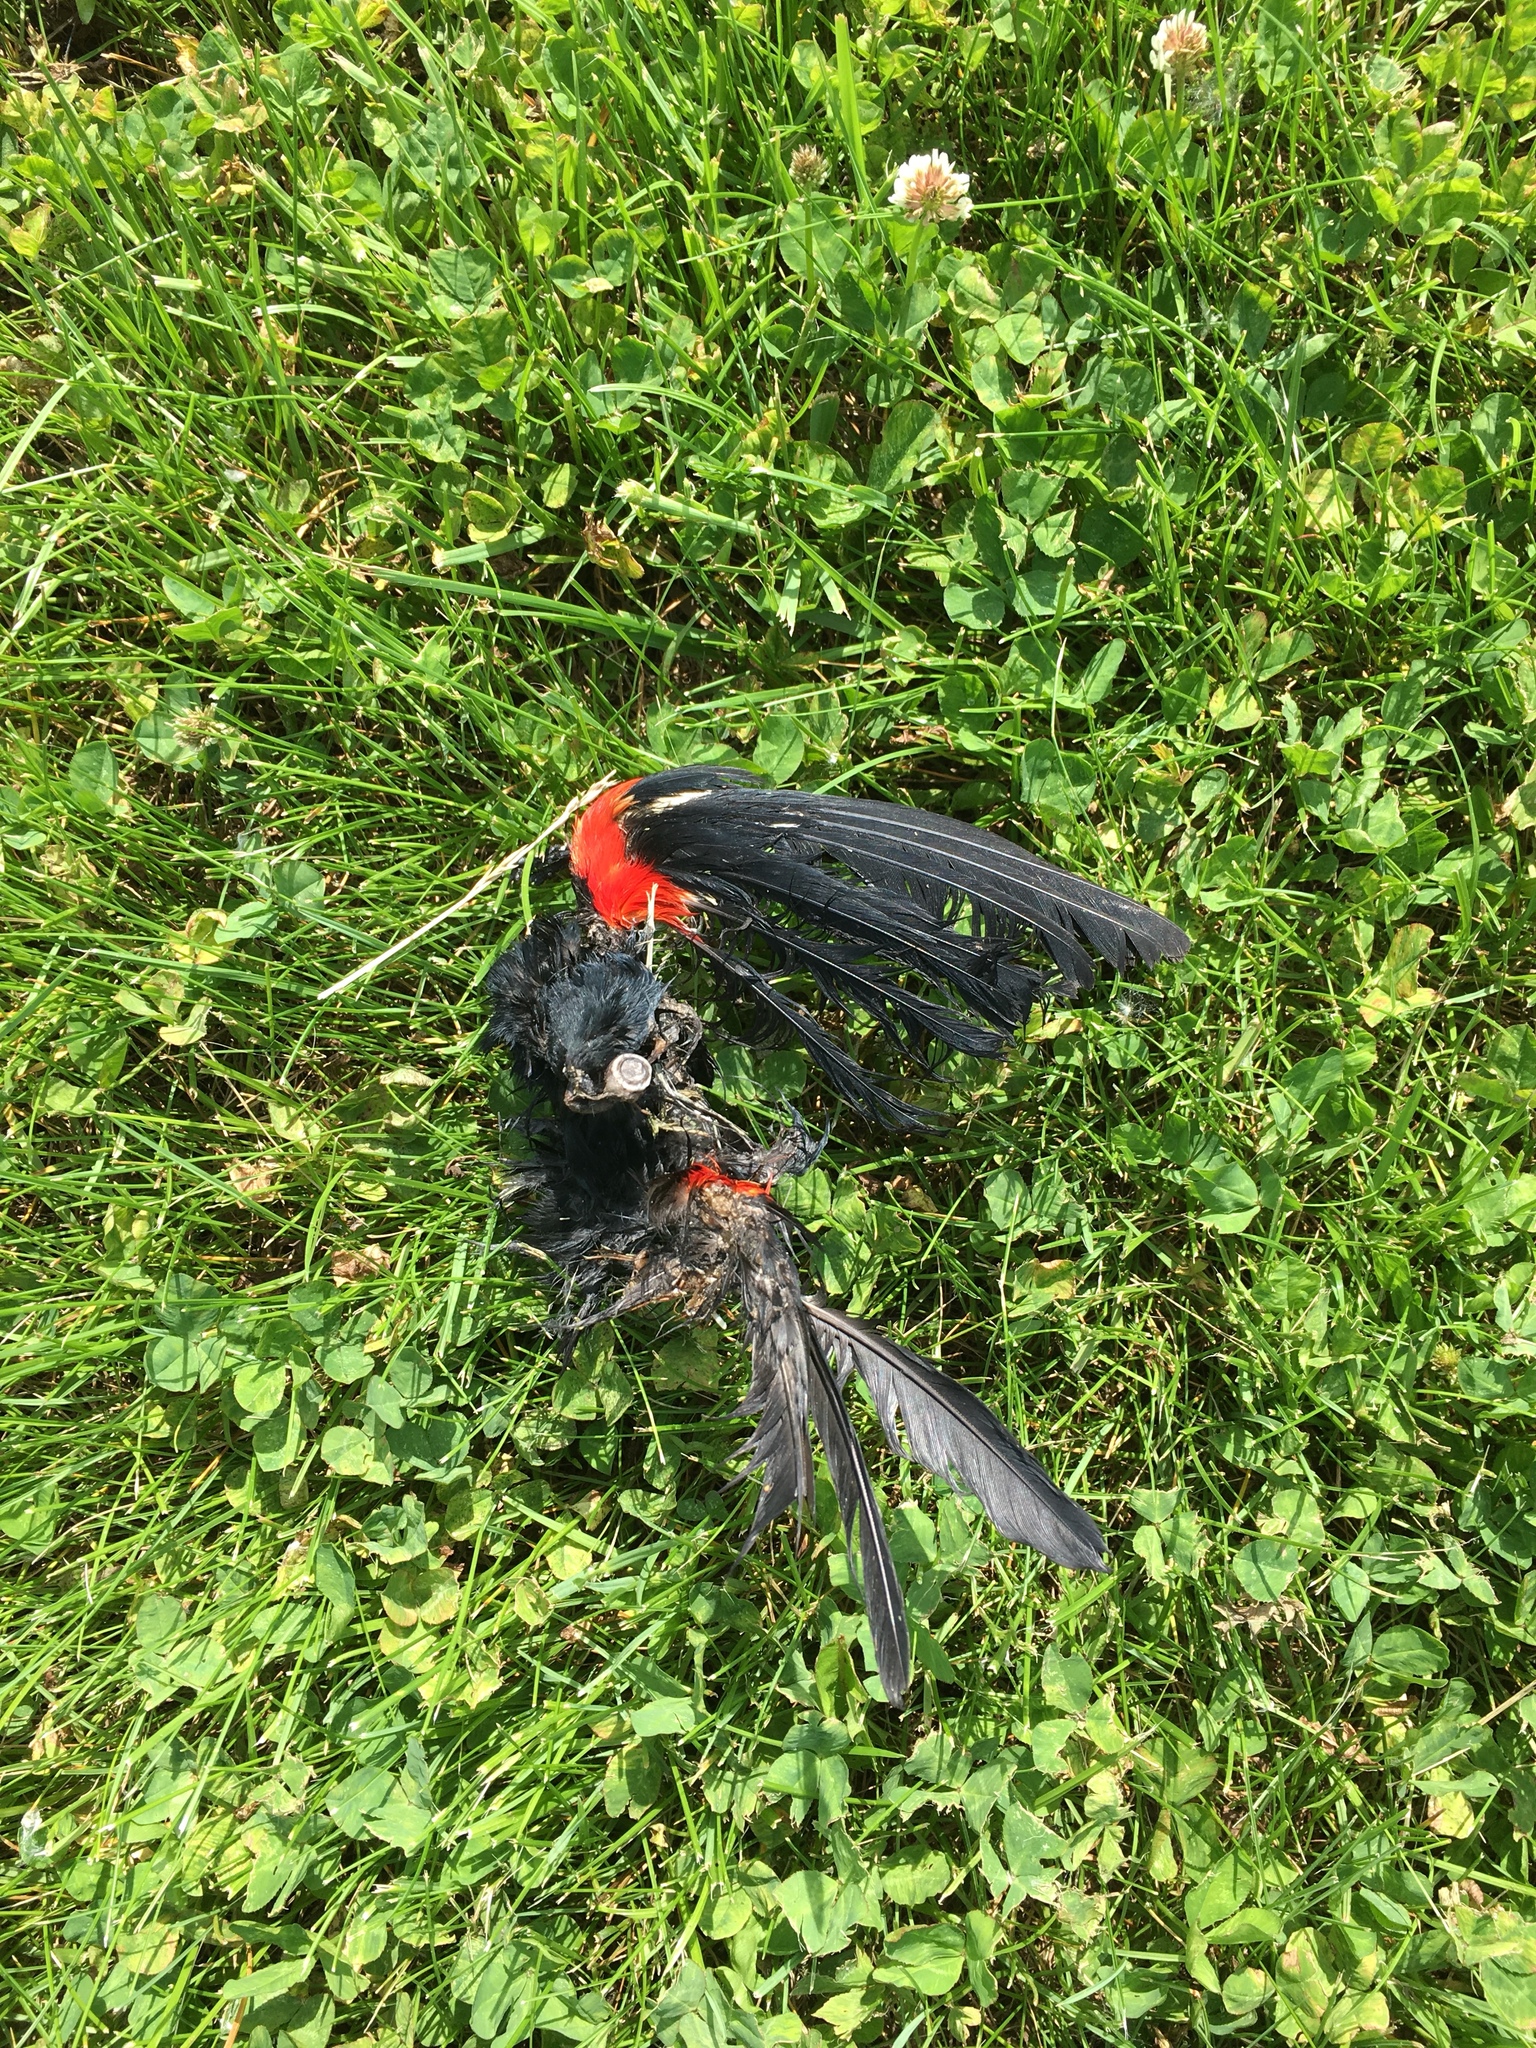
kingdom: Animalia
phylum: Chordata
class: Aves
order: Passeriformes
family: Icteridae
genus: Agelaius
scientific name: Agelaius phoeniceus
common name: Red-winged blackbird
